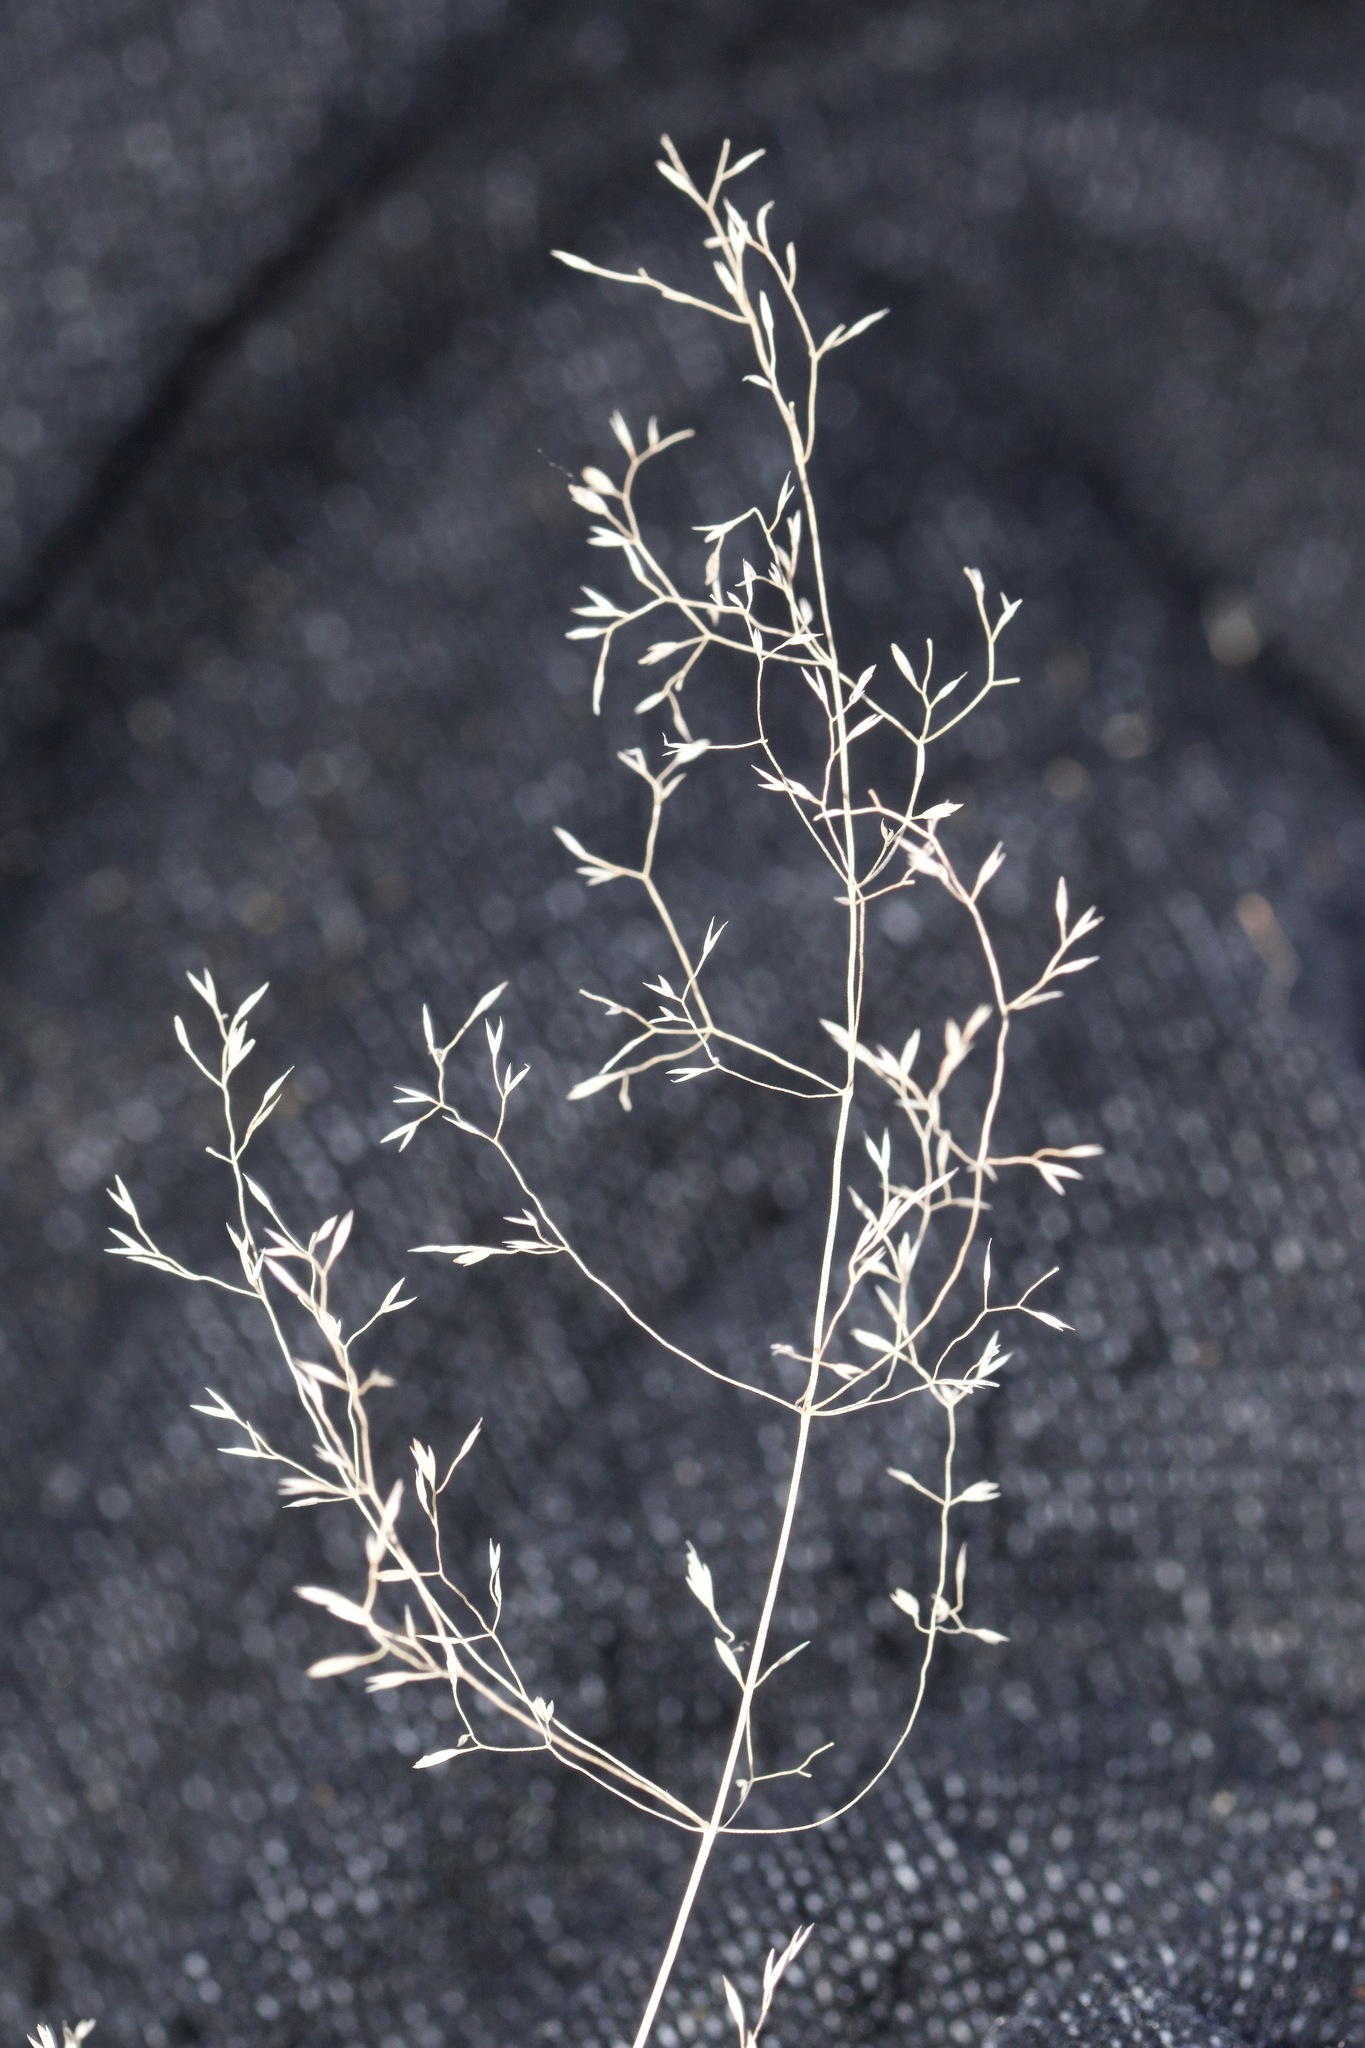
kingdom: Plantae
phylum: Tracheophyta
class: Liliopsida
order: Poales
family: Poaceae
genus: Agrostis
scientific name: Agrostis perennans
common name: Autumn bent
